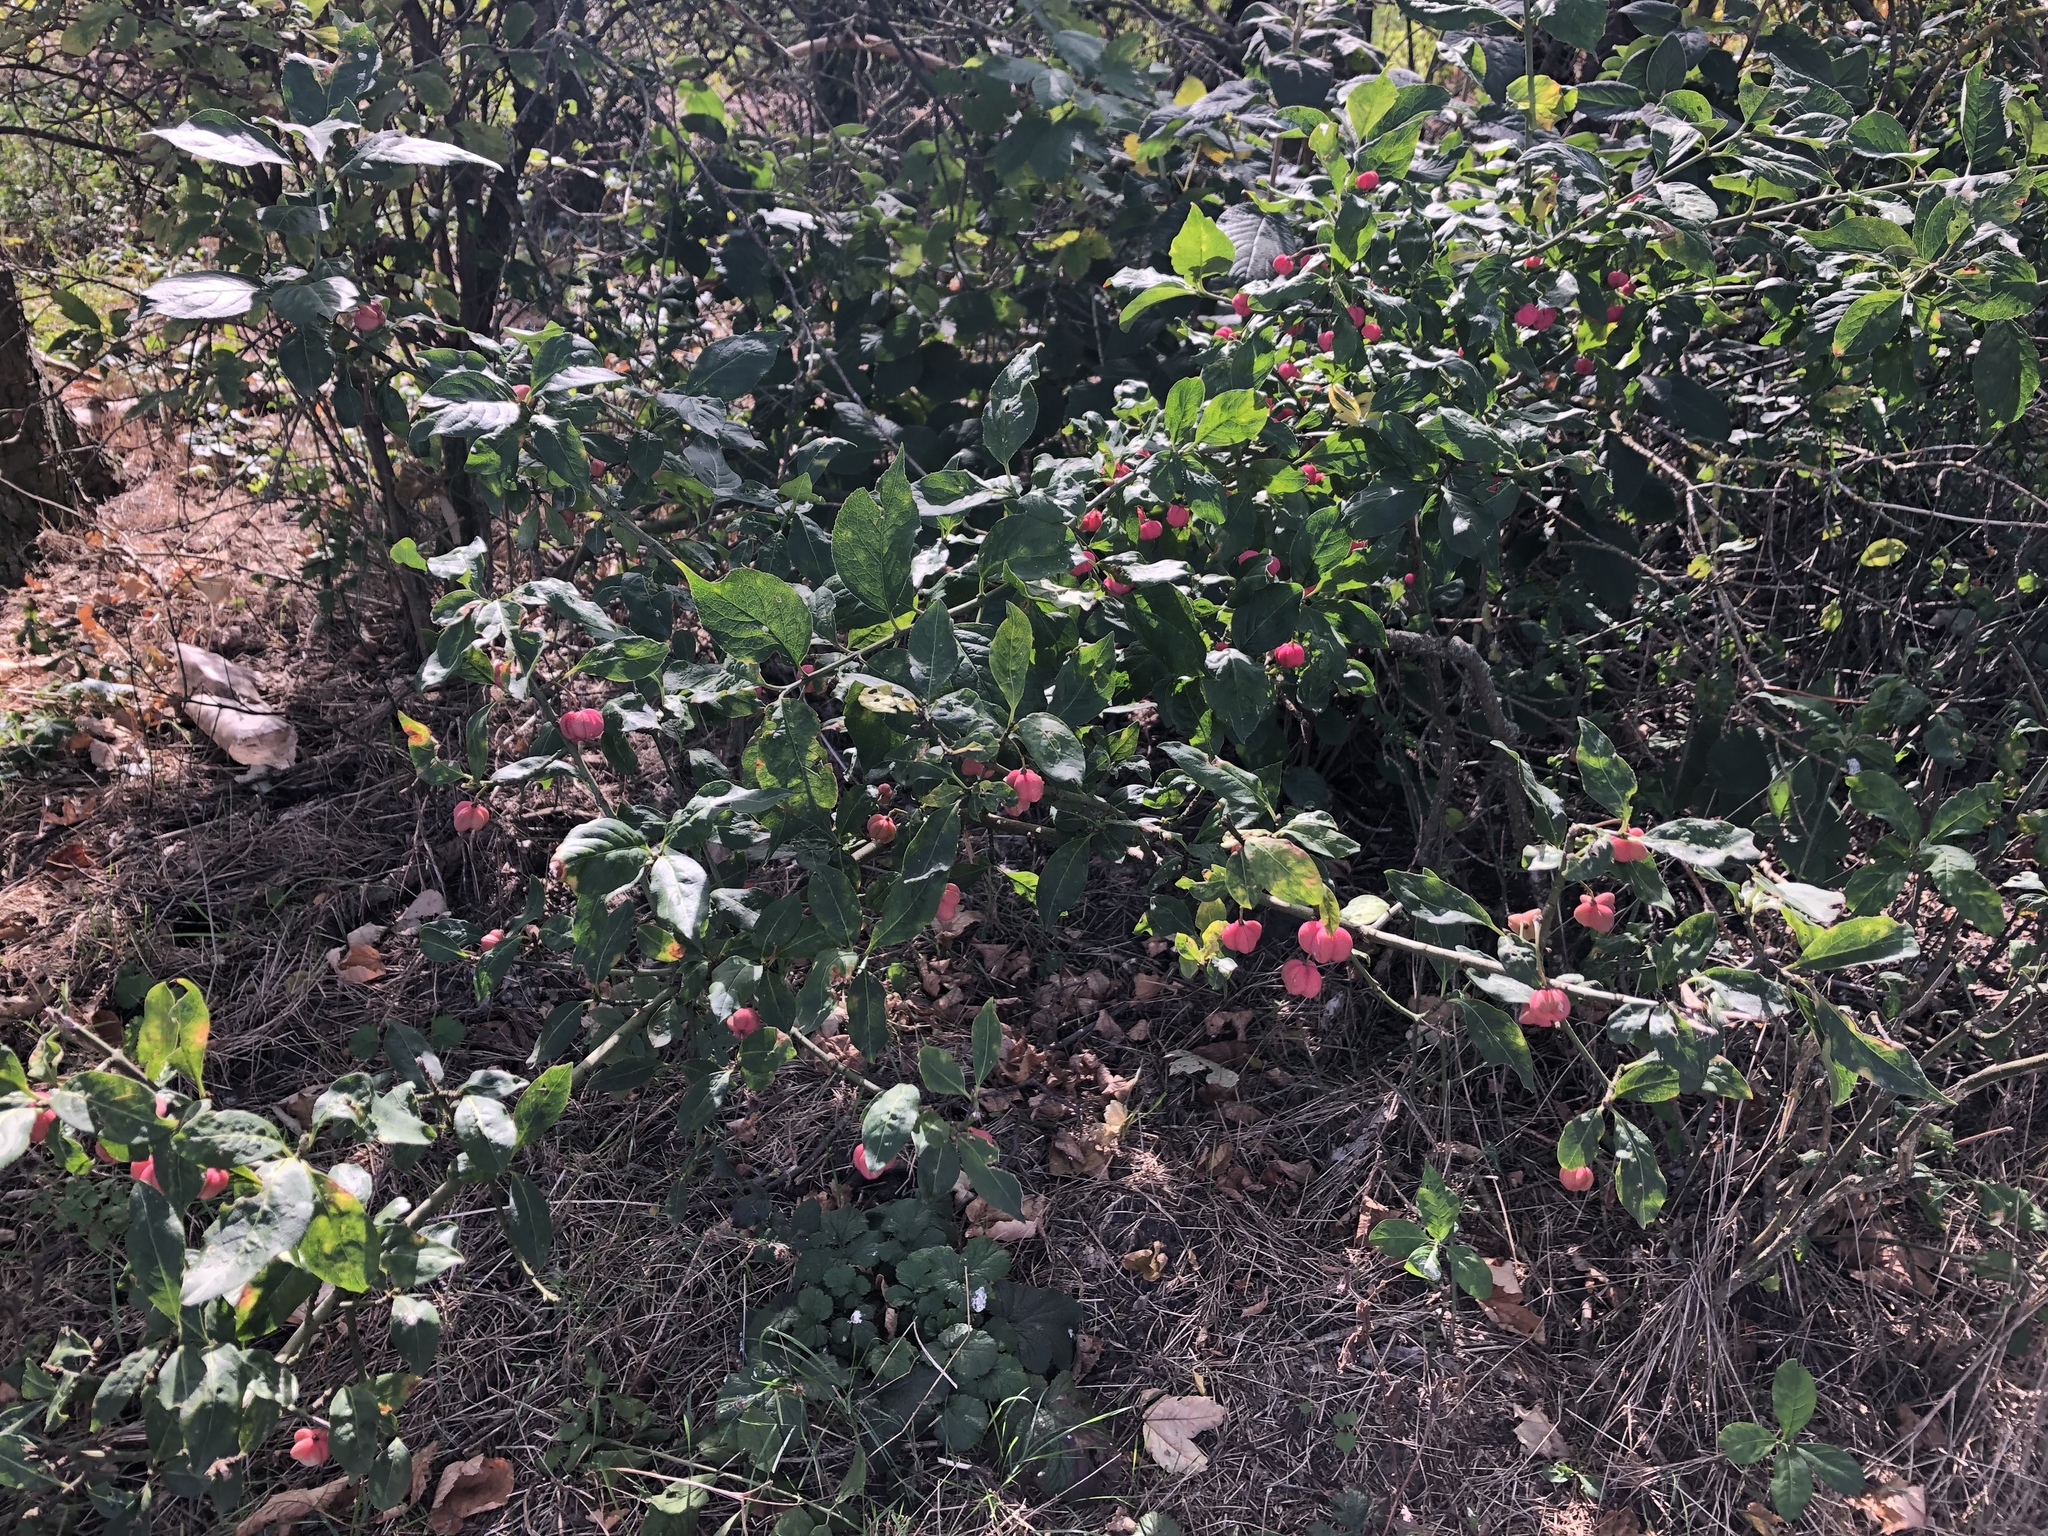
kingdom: Plantae
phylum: Tracheophyta
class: Magnoliopsida
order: Celastrales
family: Celastraceae
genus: Euonymus
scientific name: Euonymus europaeus
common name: Spindle
